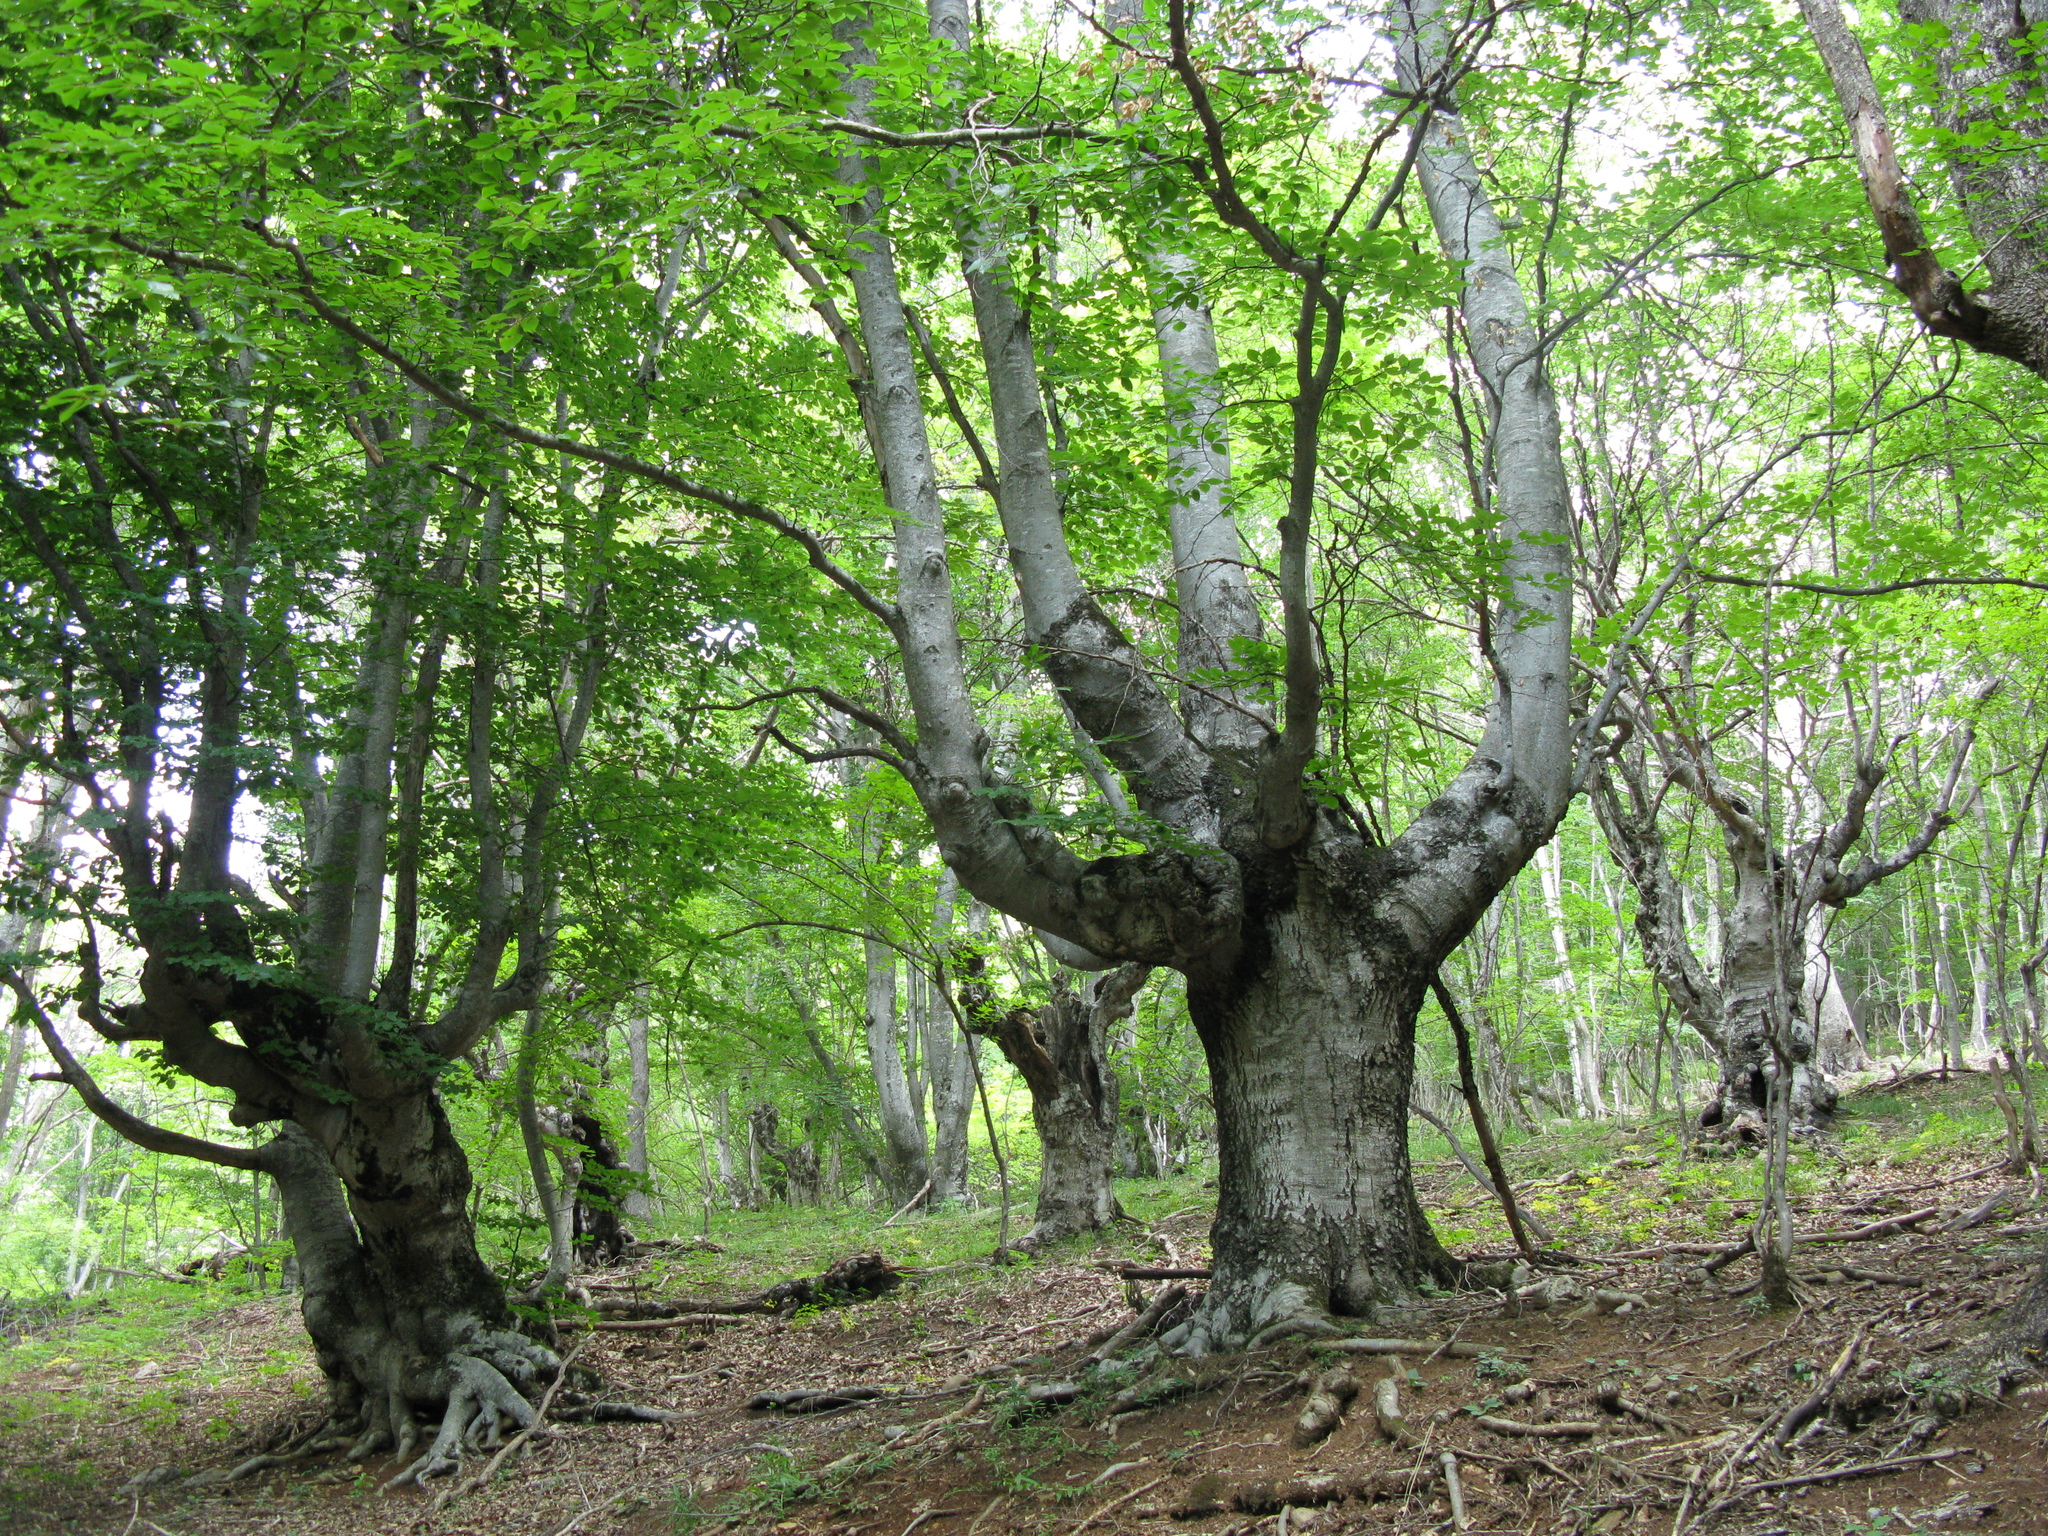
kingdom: Plantae
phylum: Tracheophyta
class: Magnoliopsida
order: Fagales
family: Fagaceae
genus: Fagus
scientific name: Fagus sylvatica
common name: Beech
